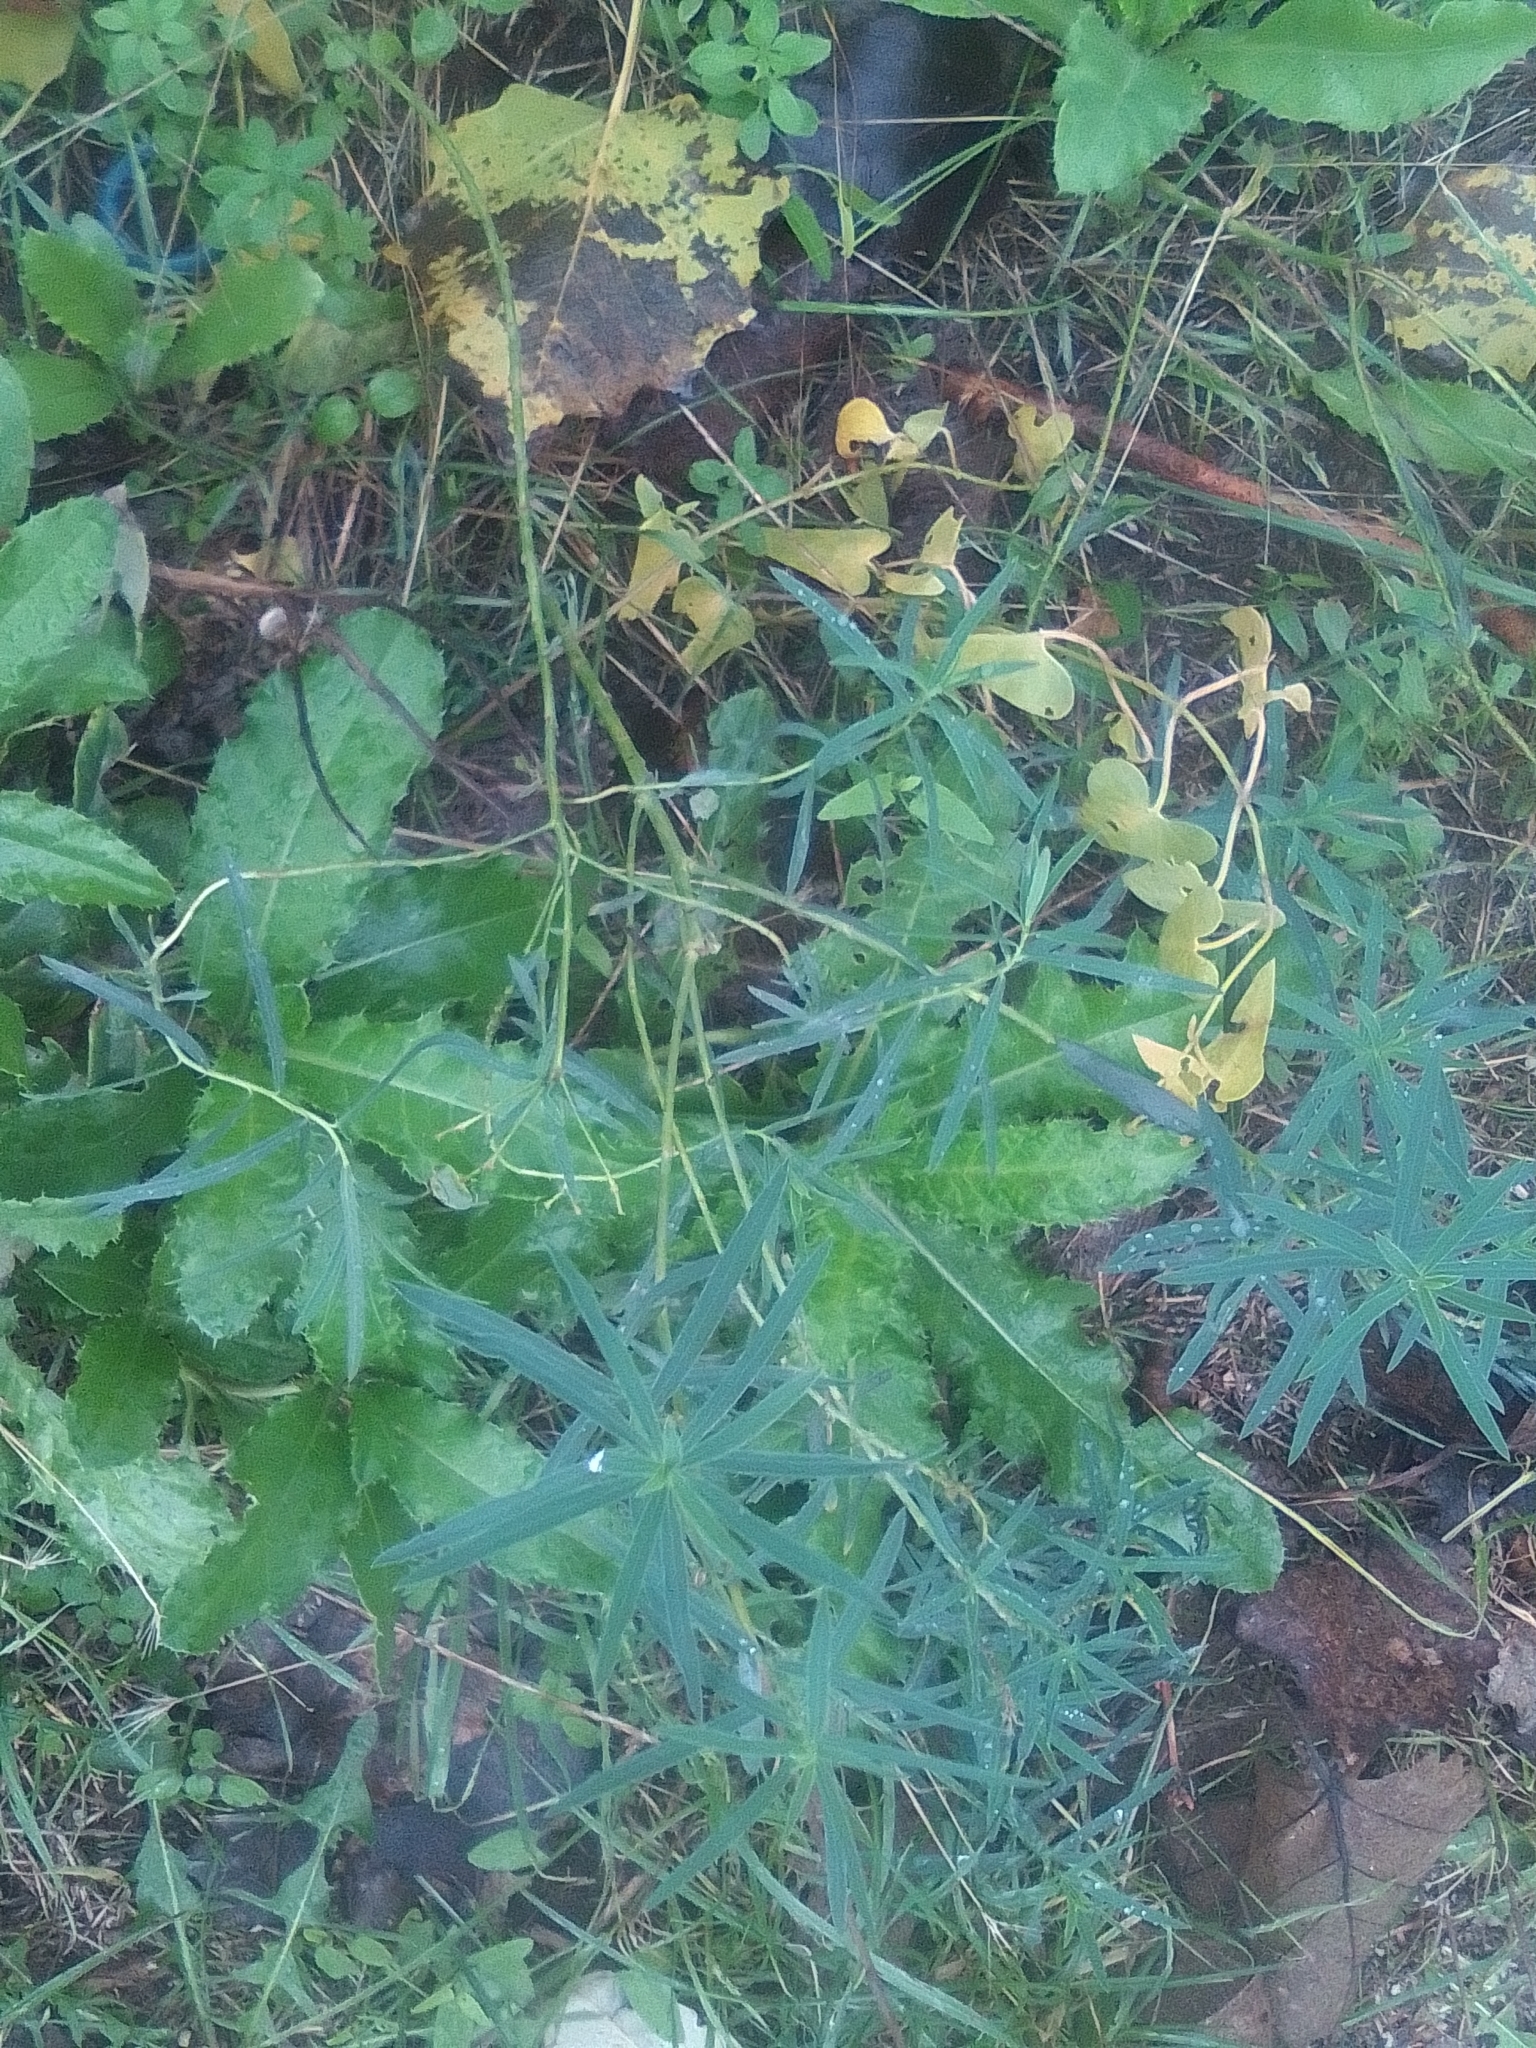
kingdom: Plantae
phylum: Tracheophyta
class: Magnoliopsida
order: Malpighiales
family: Euphorbiaceae
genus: Euphorbia
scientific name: Euphorbia virgata
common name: Leafy spurge
